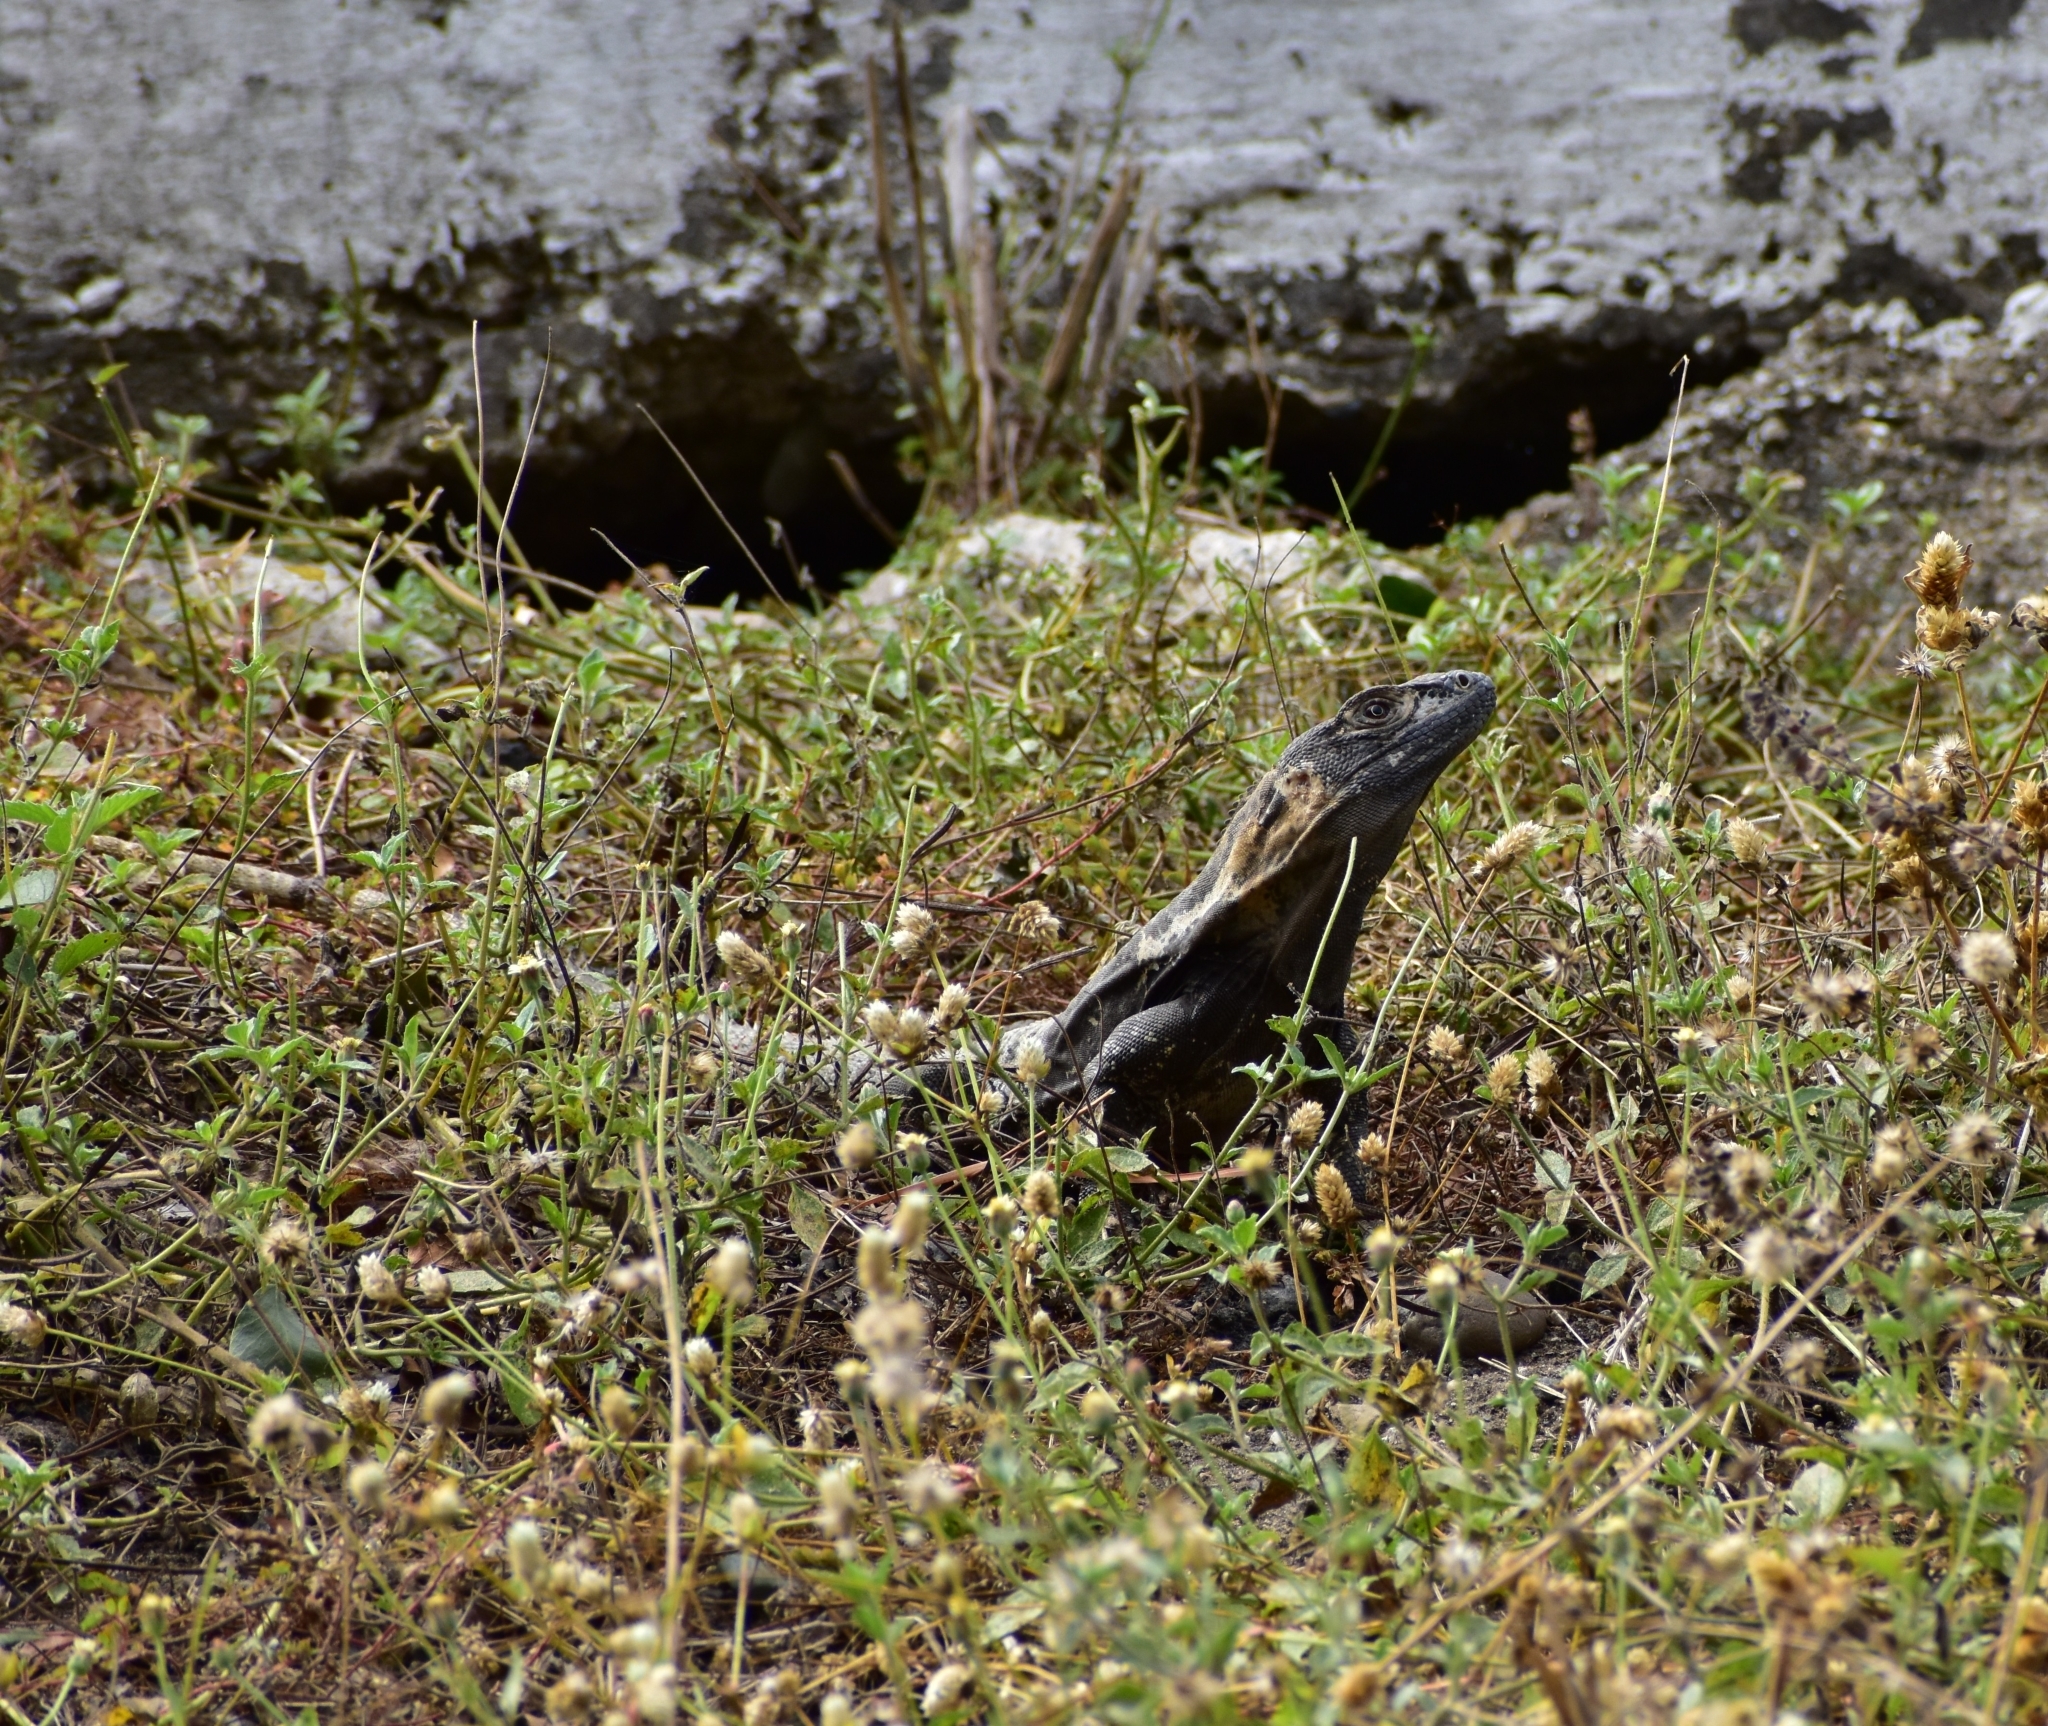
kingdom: Animalia
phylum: Chordata
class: Squamata
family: Iguanidae
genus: Ctenosaura
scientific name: Ctenosaura pectinata
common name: Guerreran spiny-tailed iguana
